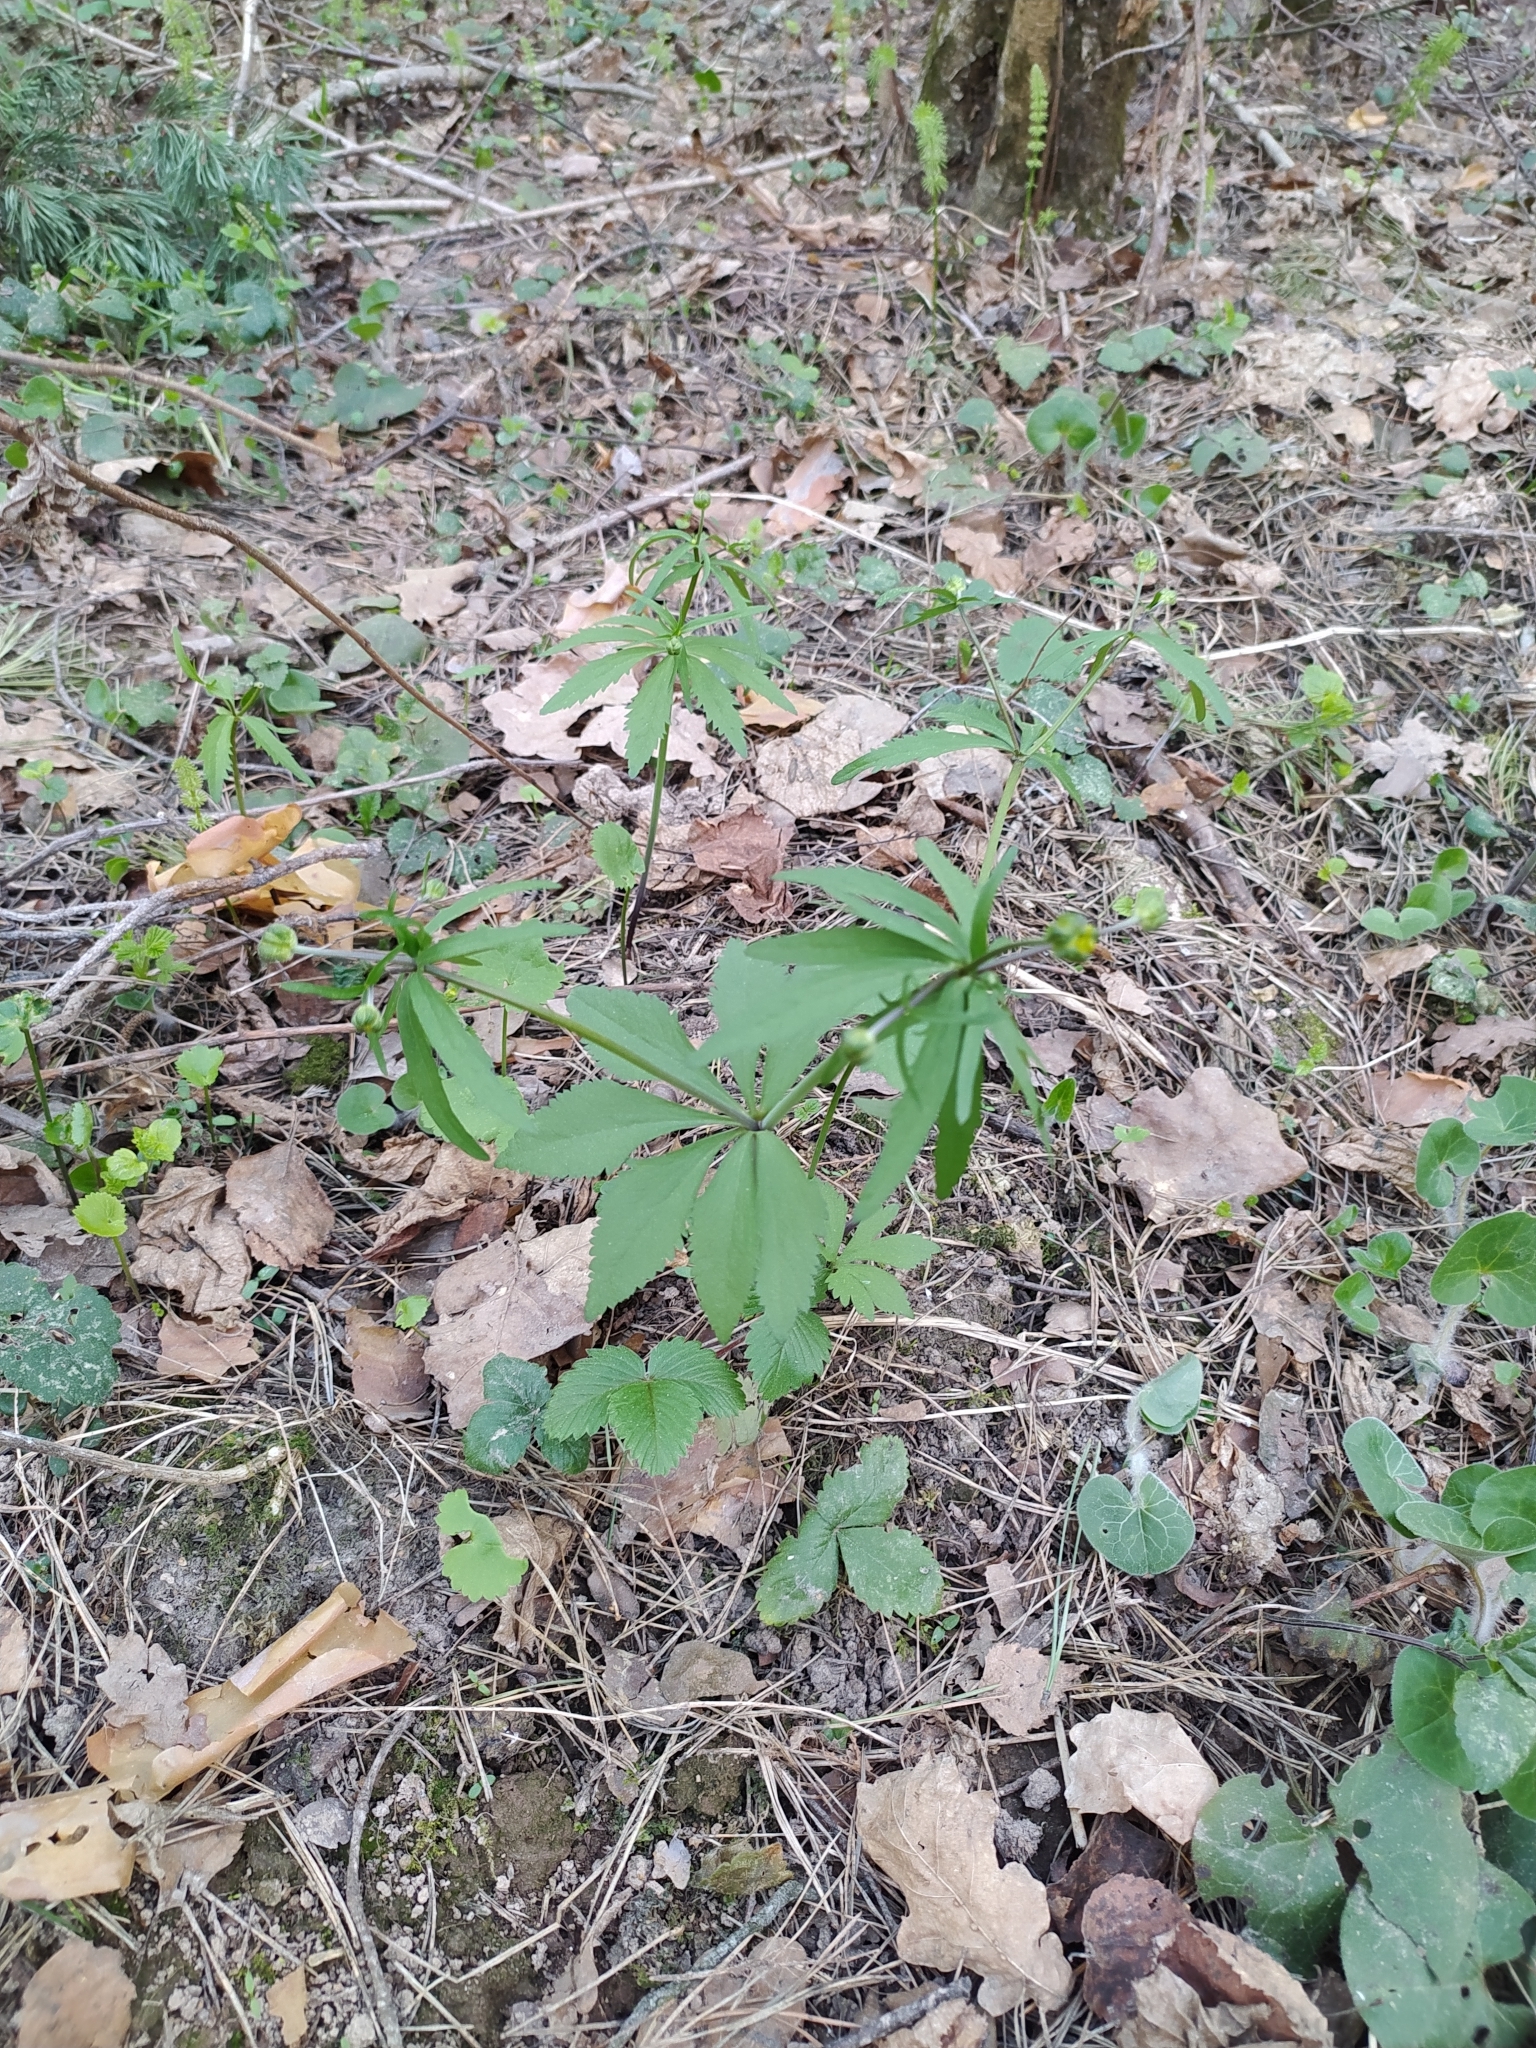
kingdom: Plantae
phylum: Tracheophyta
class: Magnoliopsida
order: Ranunculales
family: Ranunculaceae
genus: Ranunculus
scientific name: Ranunculus cassubicus
